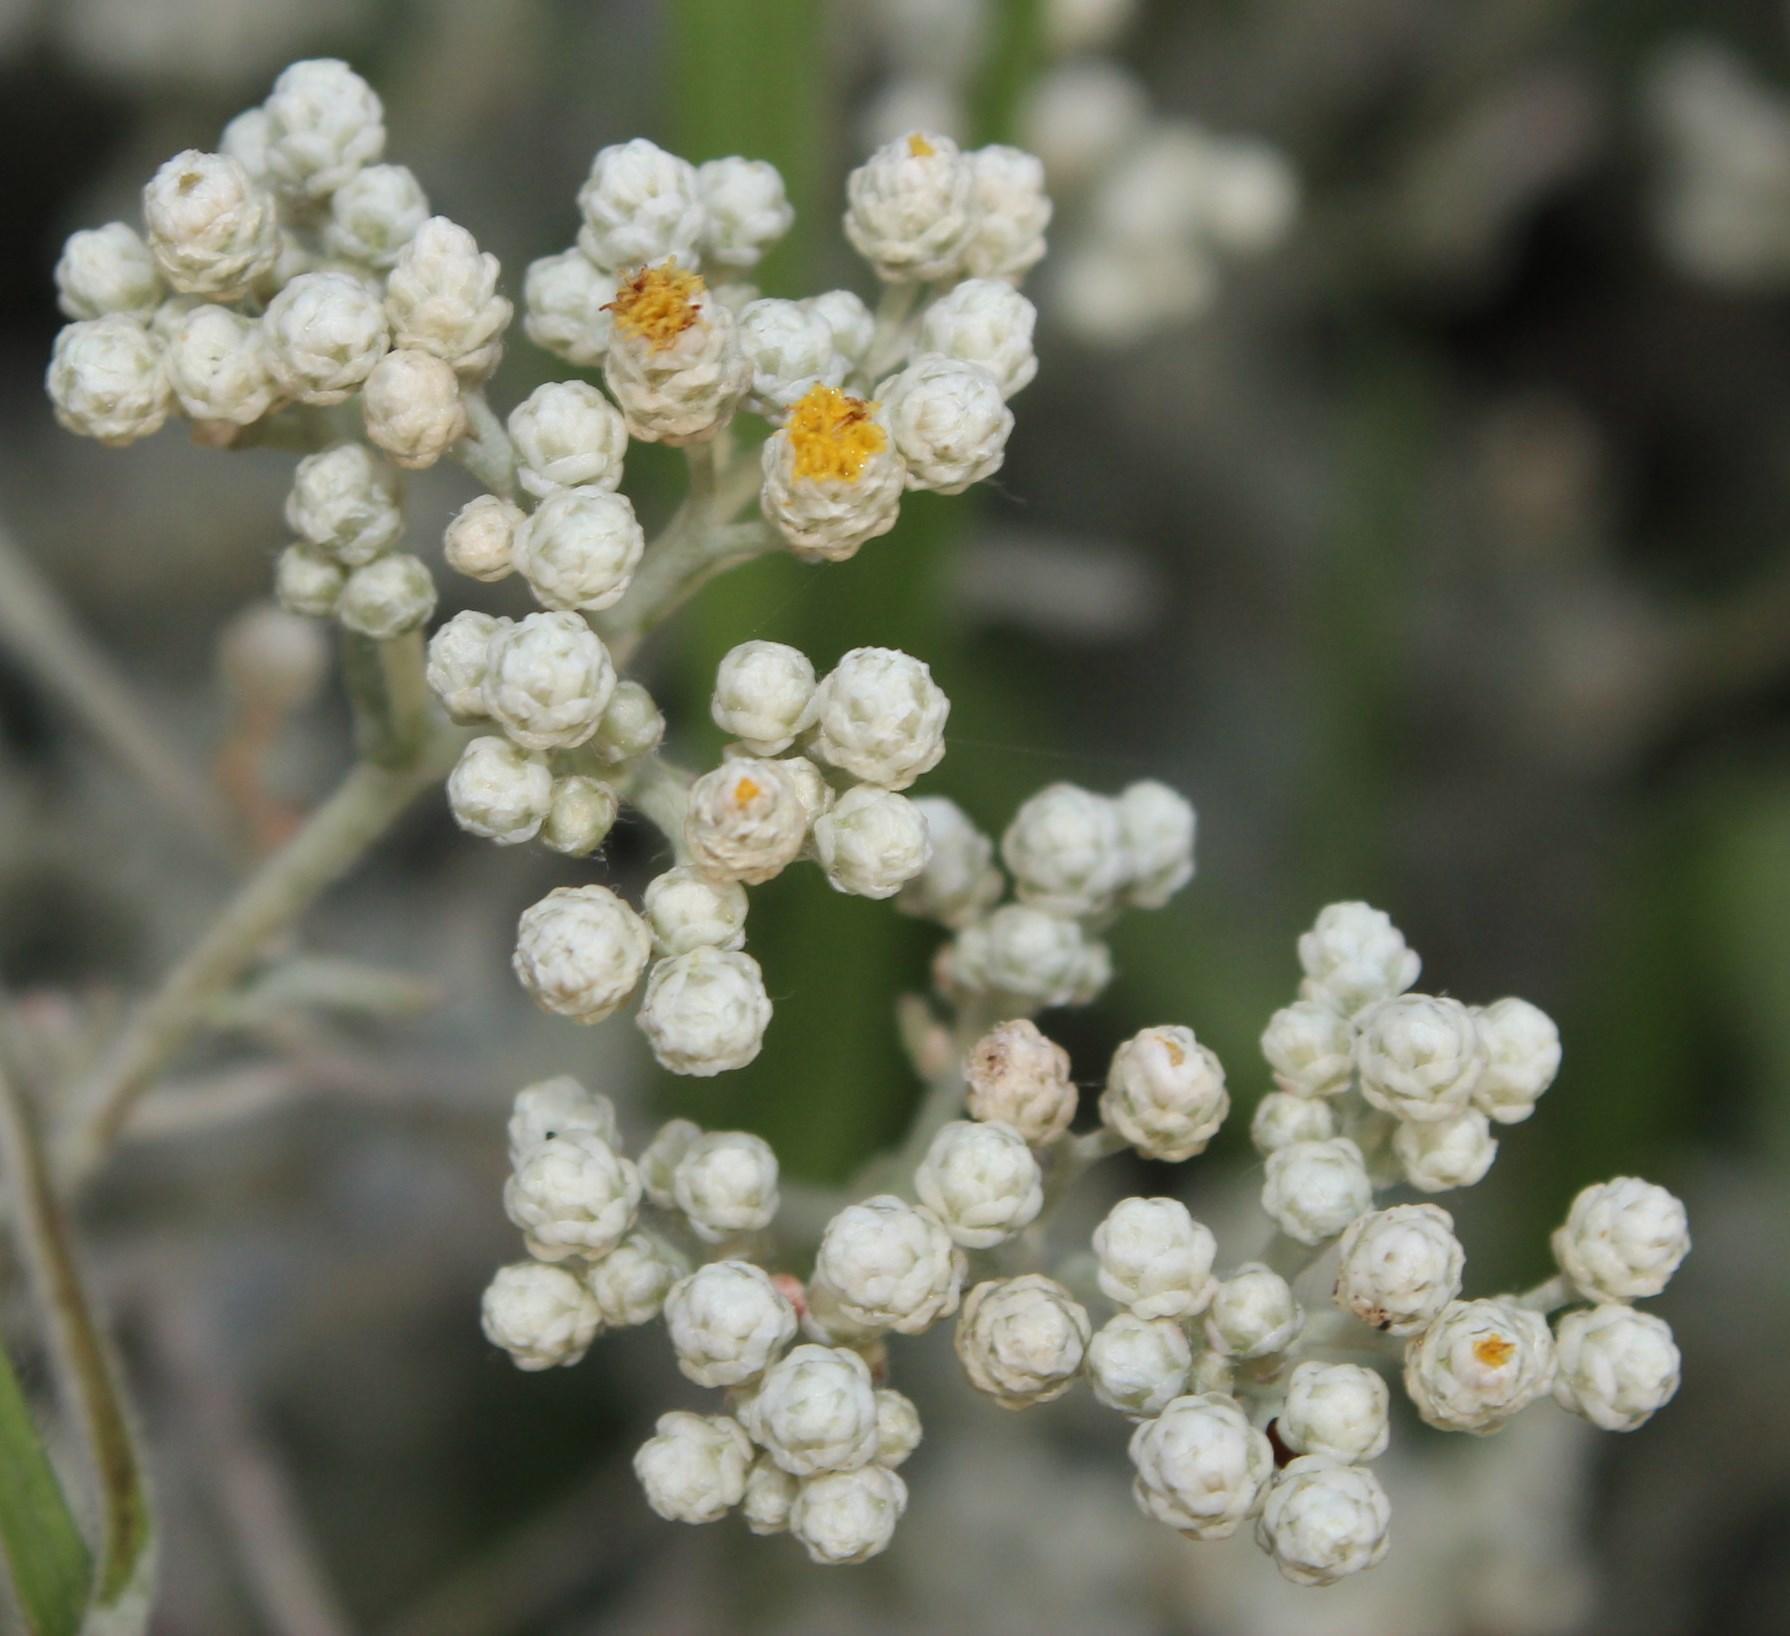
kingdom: Plantae
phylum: Tracheophyta
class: Magnoliopsida
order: Asterales
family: Asteraceae
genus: Helichrysum
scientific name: Helichrysum patulum
